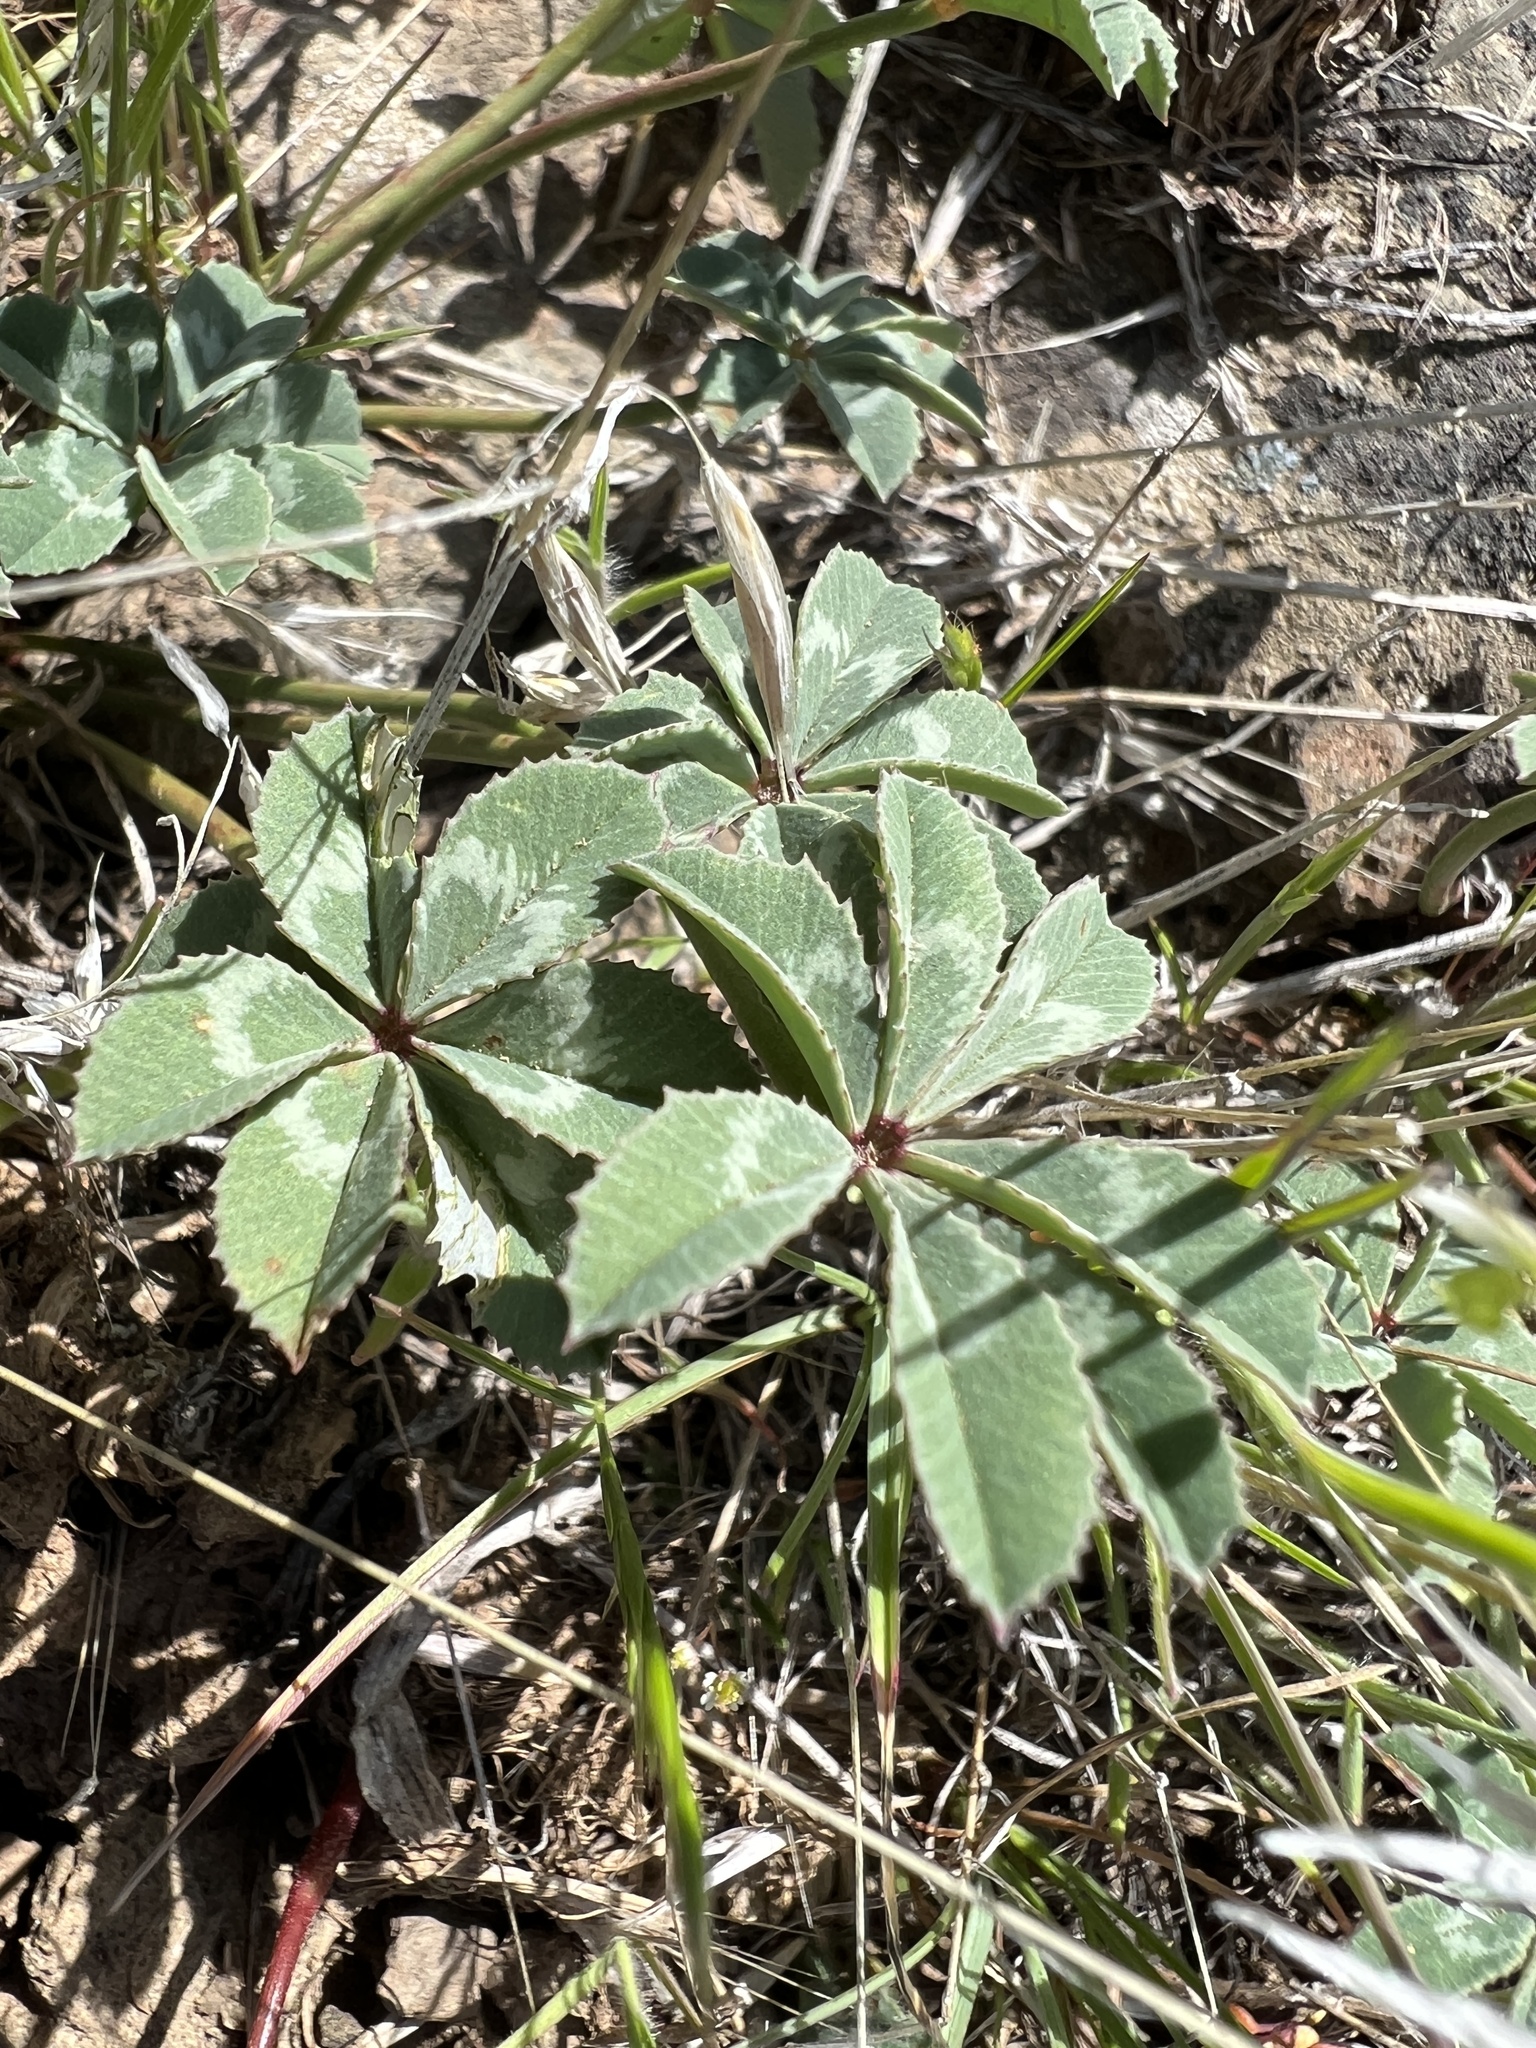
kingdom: Plantae
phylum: Tracheophyta
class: Magnoliopsida
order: Fabales
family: Fabaceae
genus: Trifolium
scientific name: Trifolium macrocephalum
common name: Large-head clover
